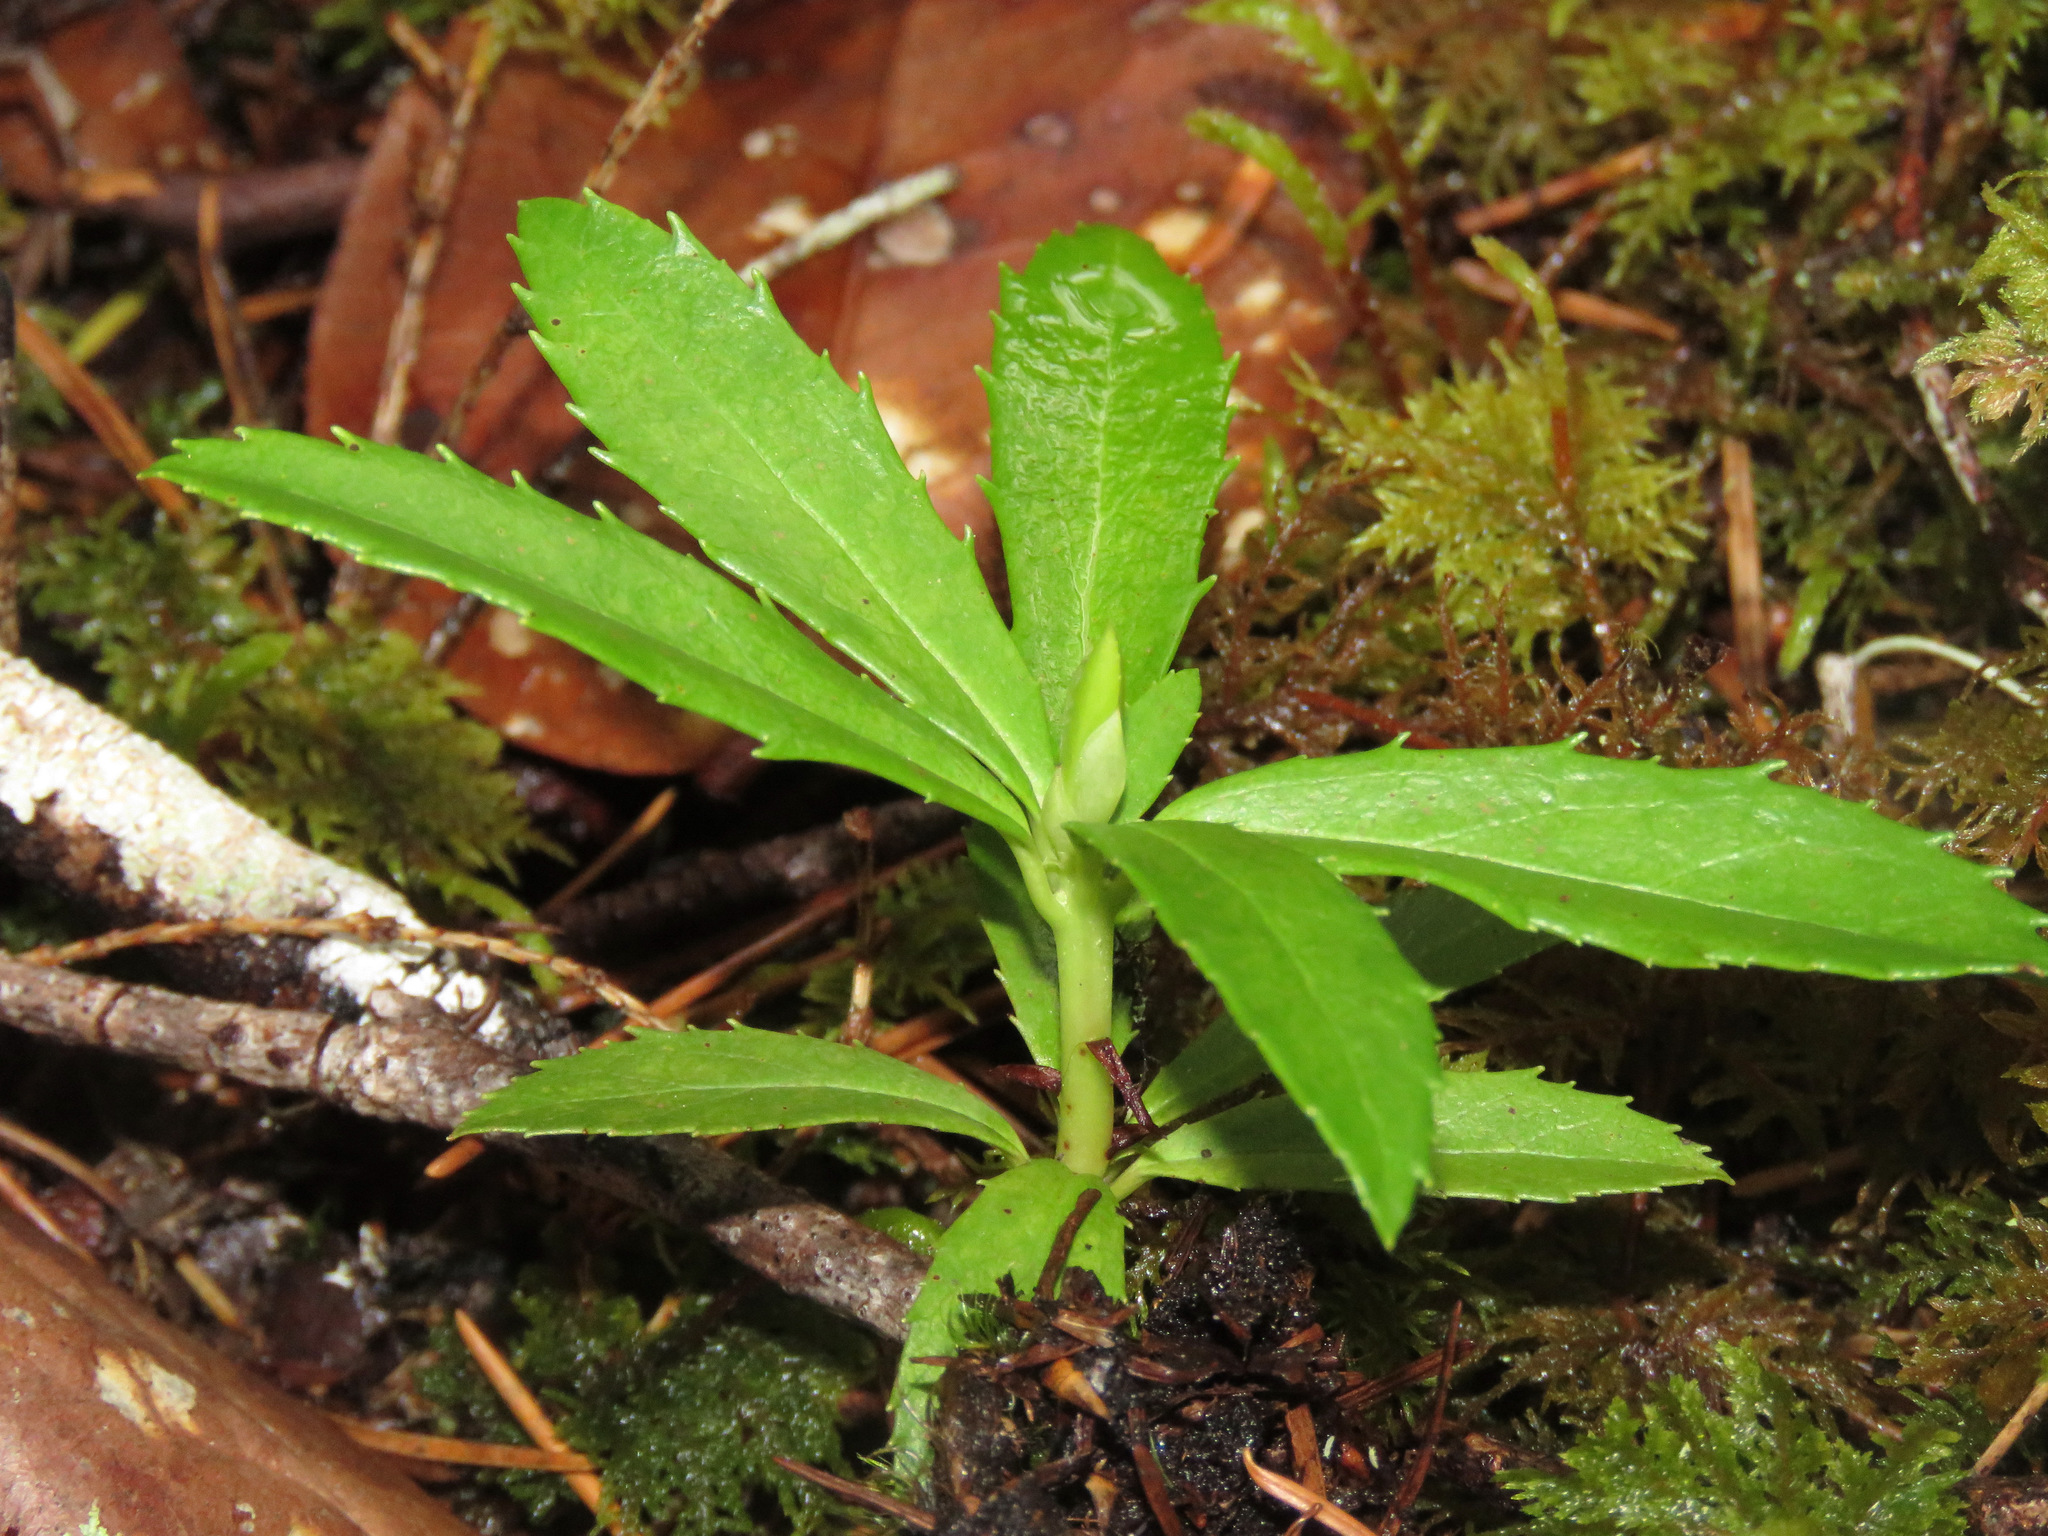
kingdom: Plantae
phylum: Tracheophyta
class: Magnoliopsida
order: Ericales
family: Ericaceae
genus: Chimaphila
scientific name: Chimaphila umbellata
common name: Pipsissewa
